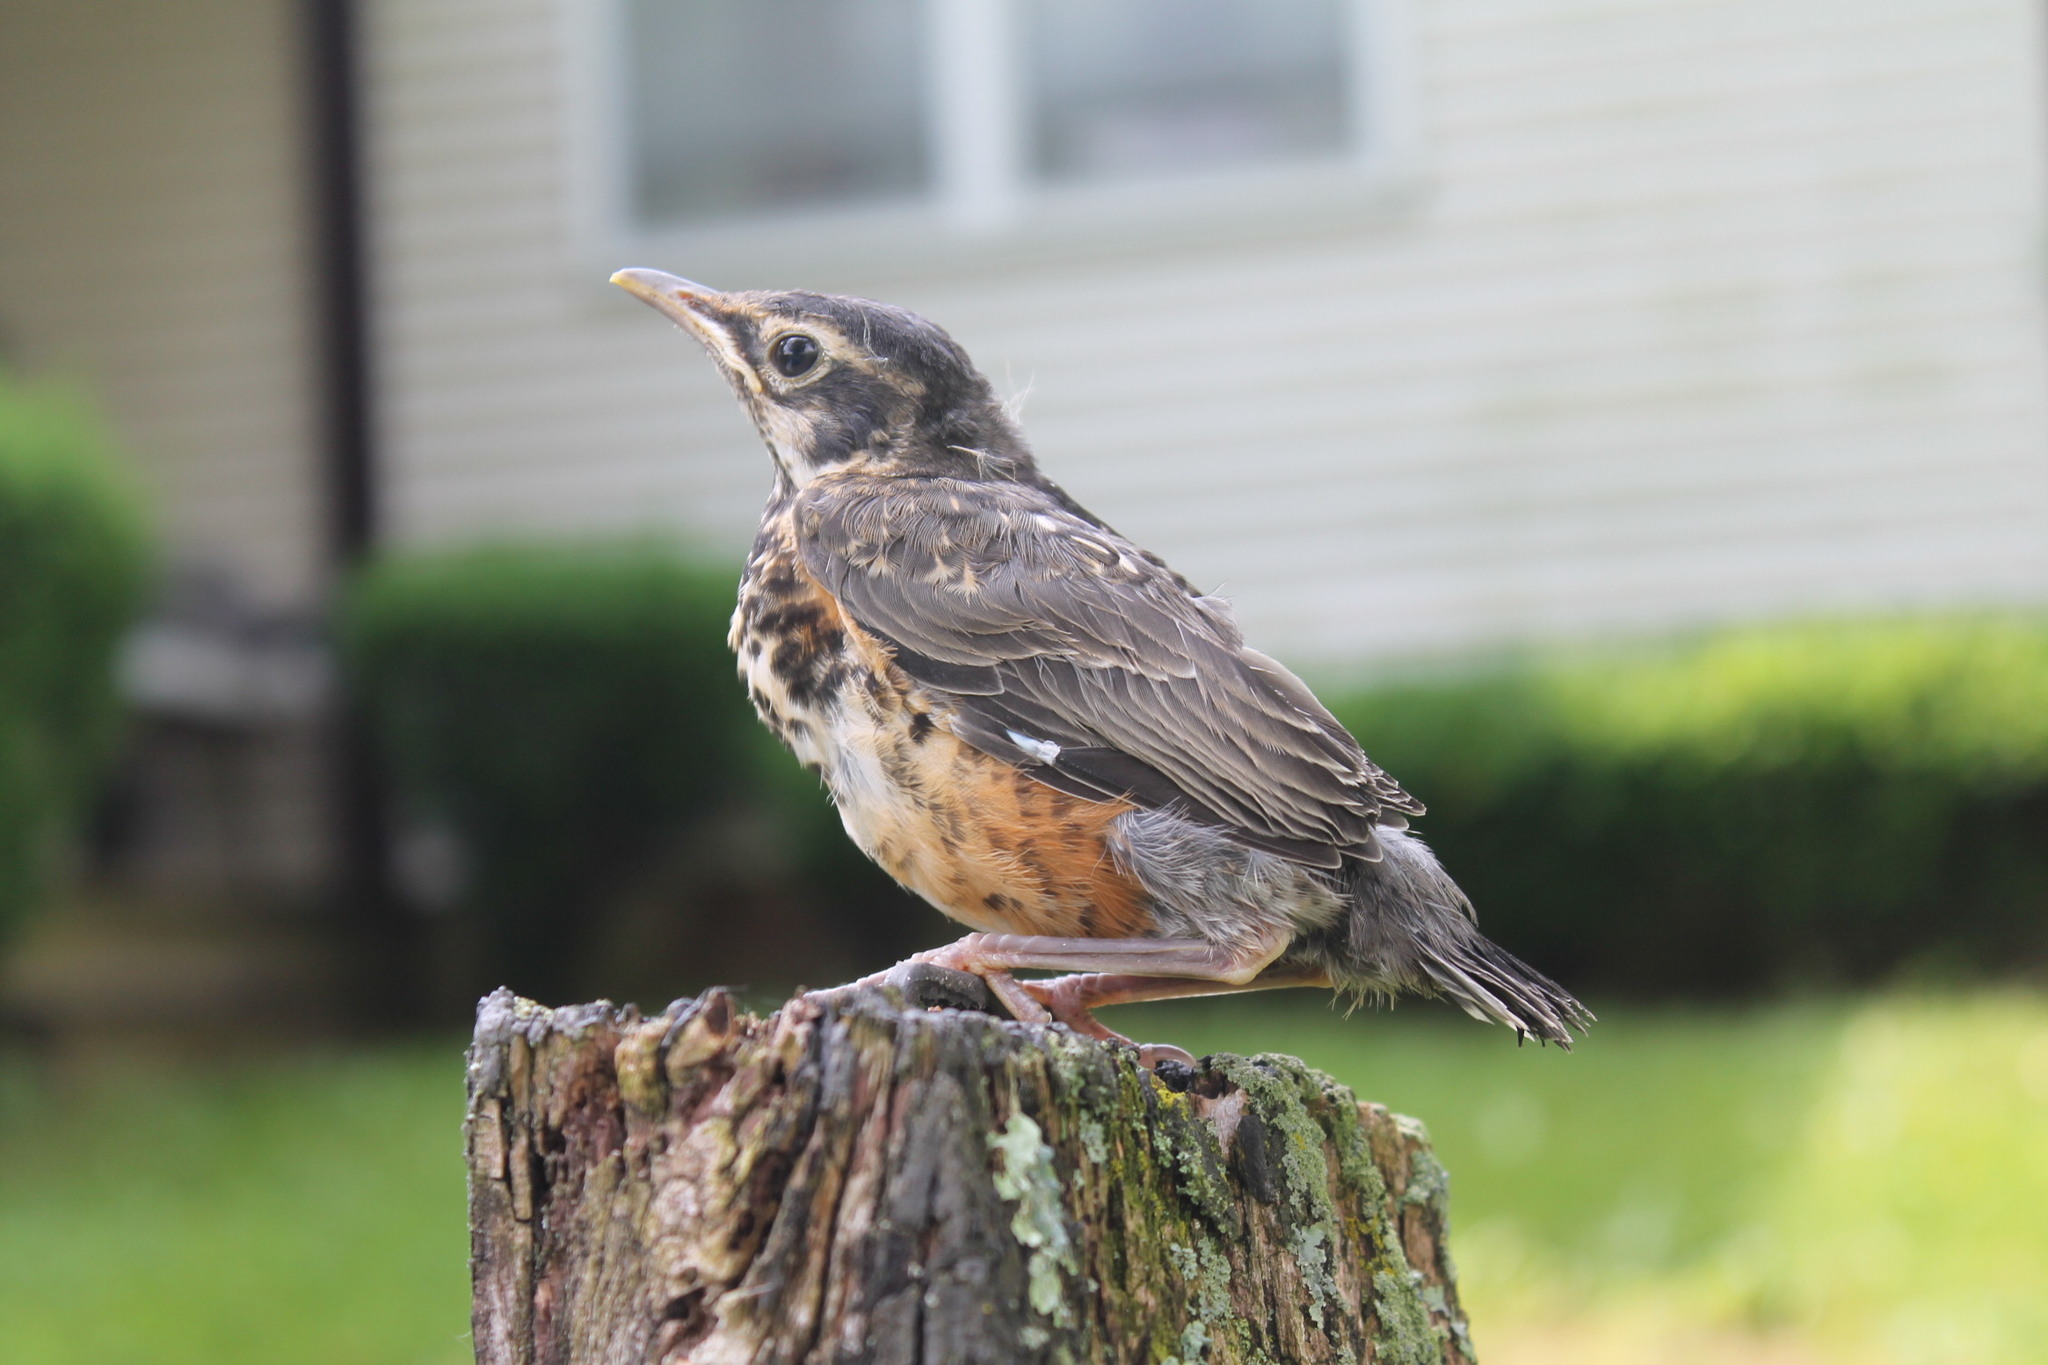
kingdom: Animalia
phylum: Chordata
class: Aves
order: Passeriformes
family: Turdidae
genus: Turdus
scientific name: Turdus migratorius
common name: American robin
